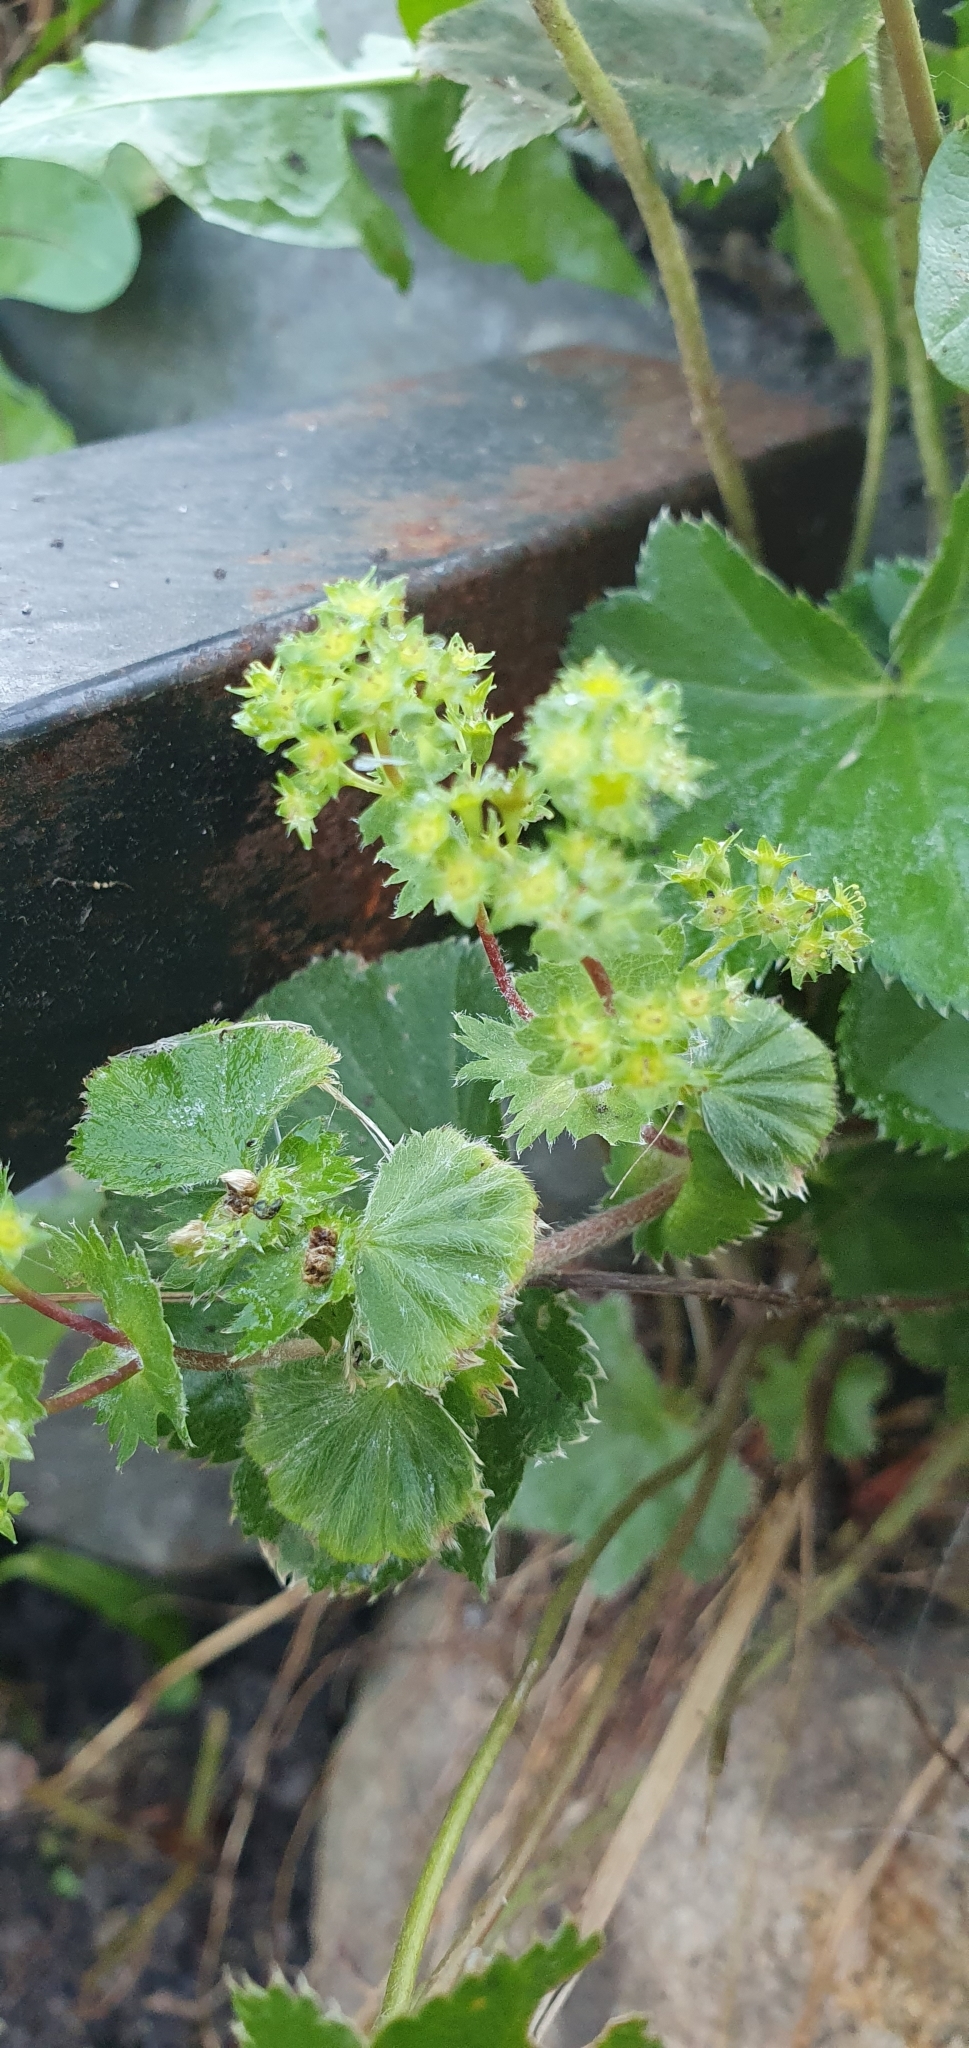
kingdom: Plantae
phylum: Tracheophyta
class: Magnoliopsida
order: Rosales
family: Rosaceae
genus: Alchemilla
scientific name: Alchemilla micans
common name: Gleaming lady's mantle
